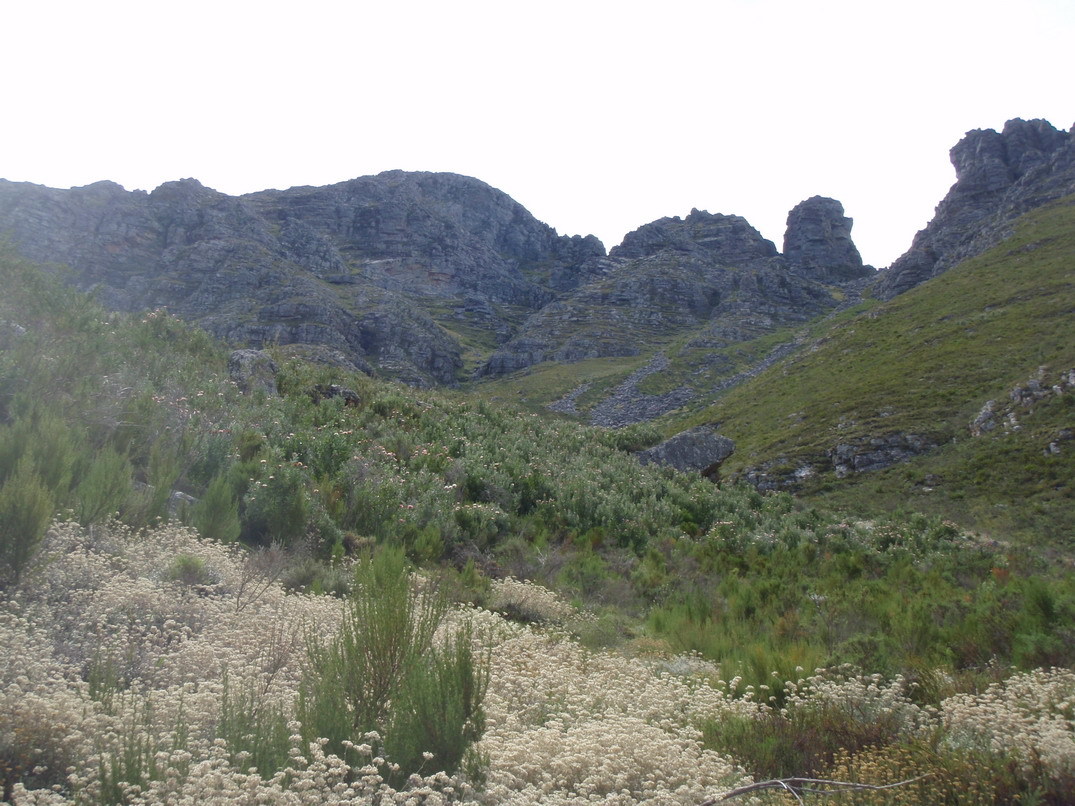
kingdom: Plantae
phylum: Tracheophyta
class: Magnoliopsida
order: Asterales
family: Asteraceae
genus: Helichrysum
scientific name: Helichrysum petiolare
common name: Licorice-plant
